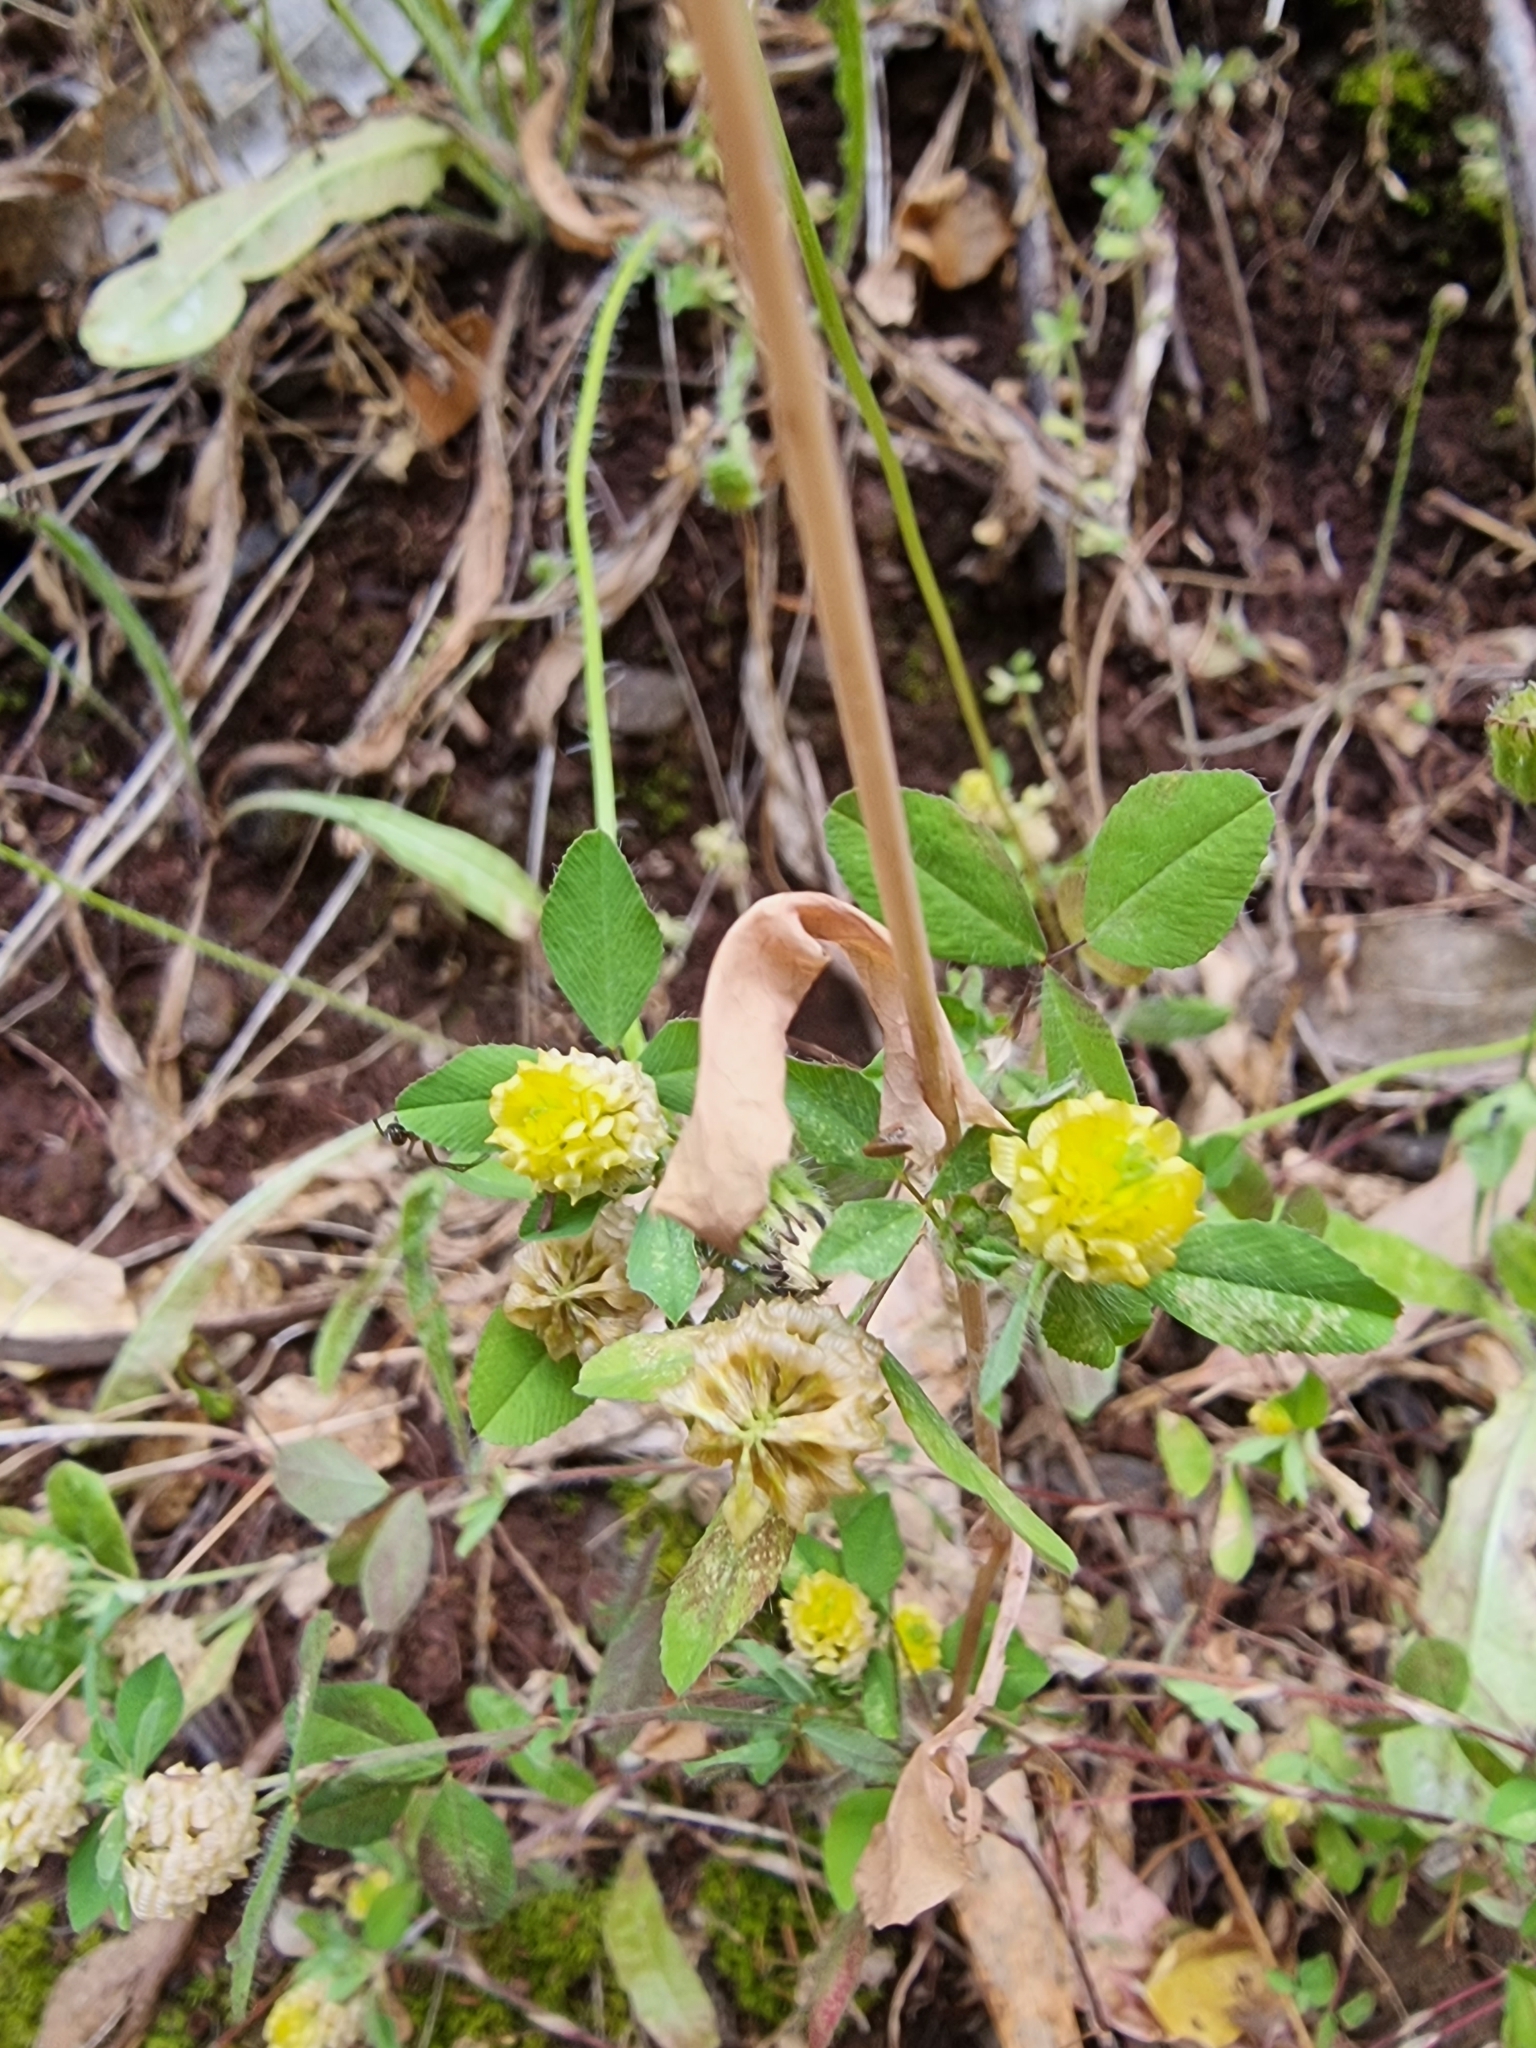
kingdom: Plantae
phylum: Tracheophyta
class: Magnoliopsida
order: Fabales
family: Fabaceae
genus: Trifolium
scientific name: Trifolium campestre
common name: Field clover
